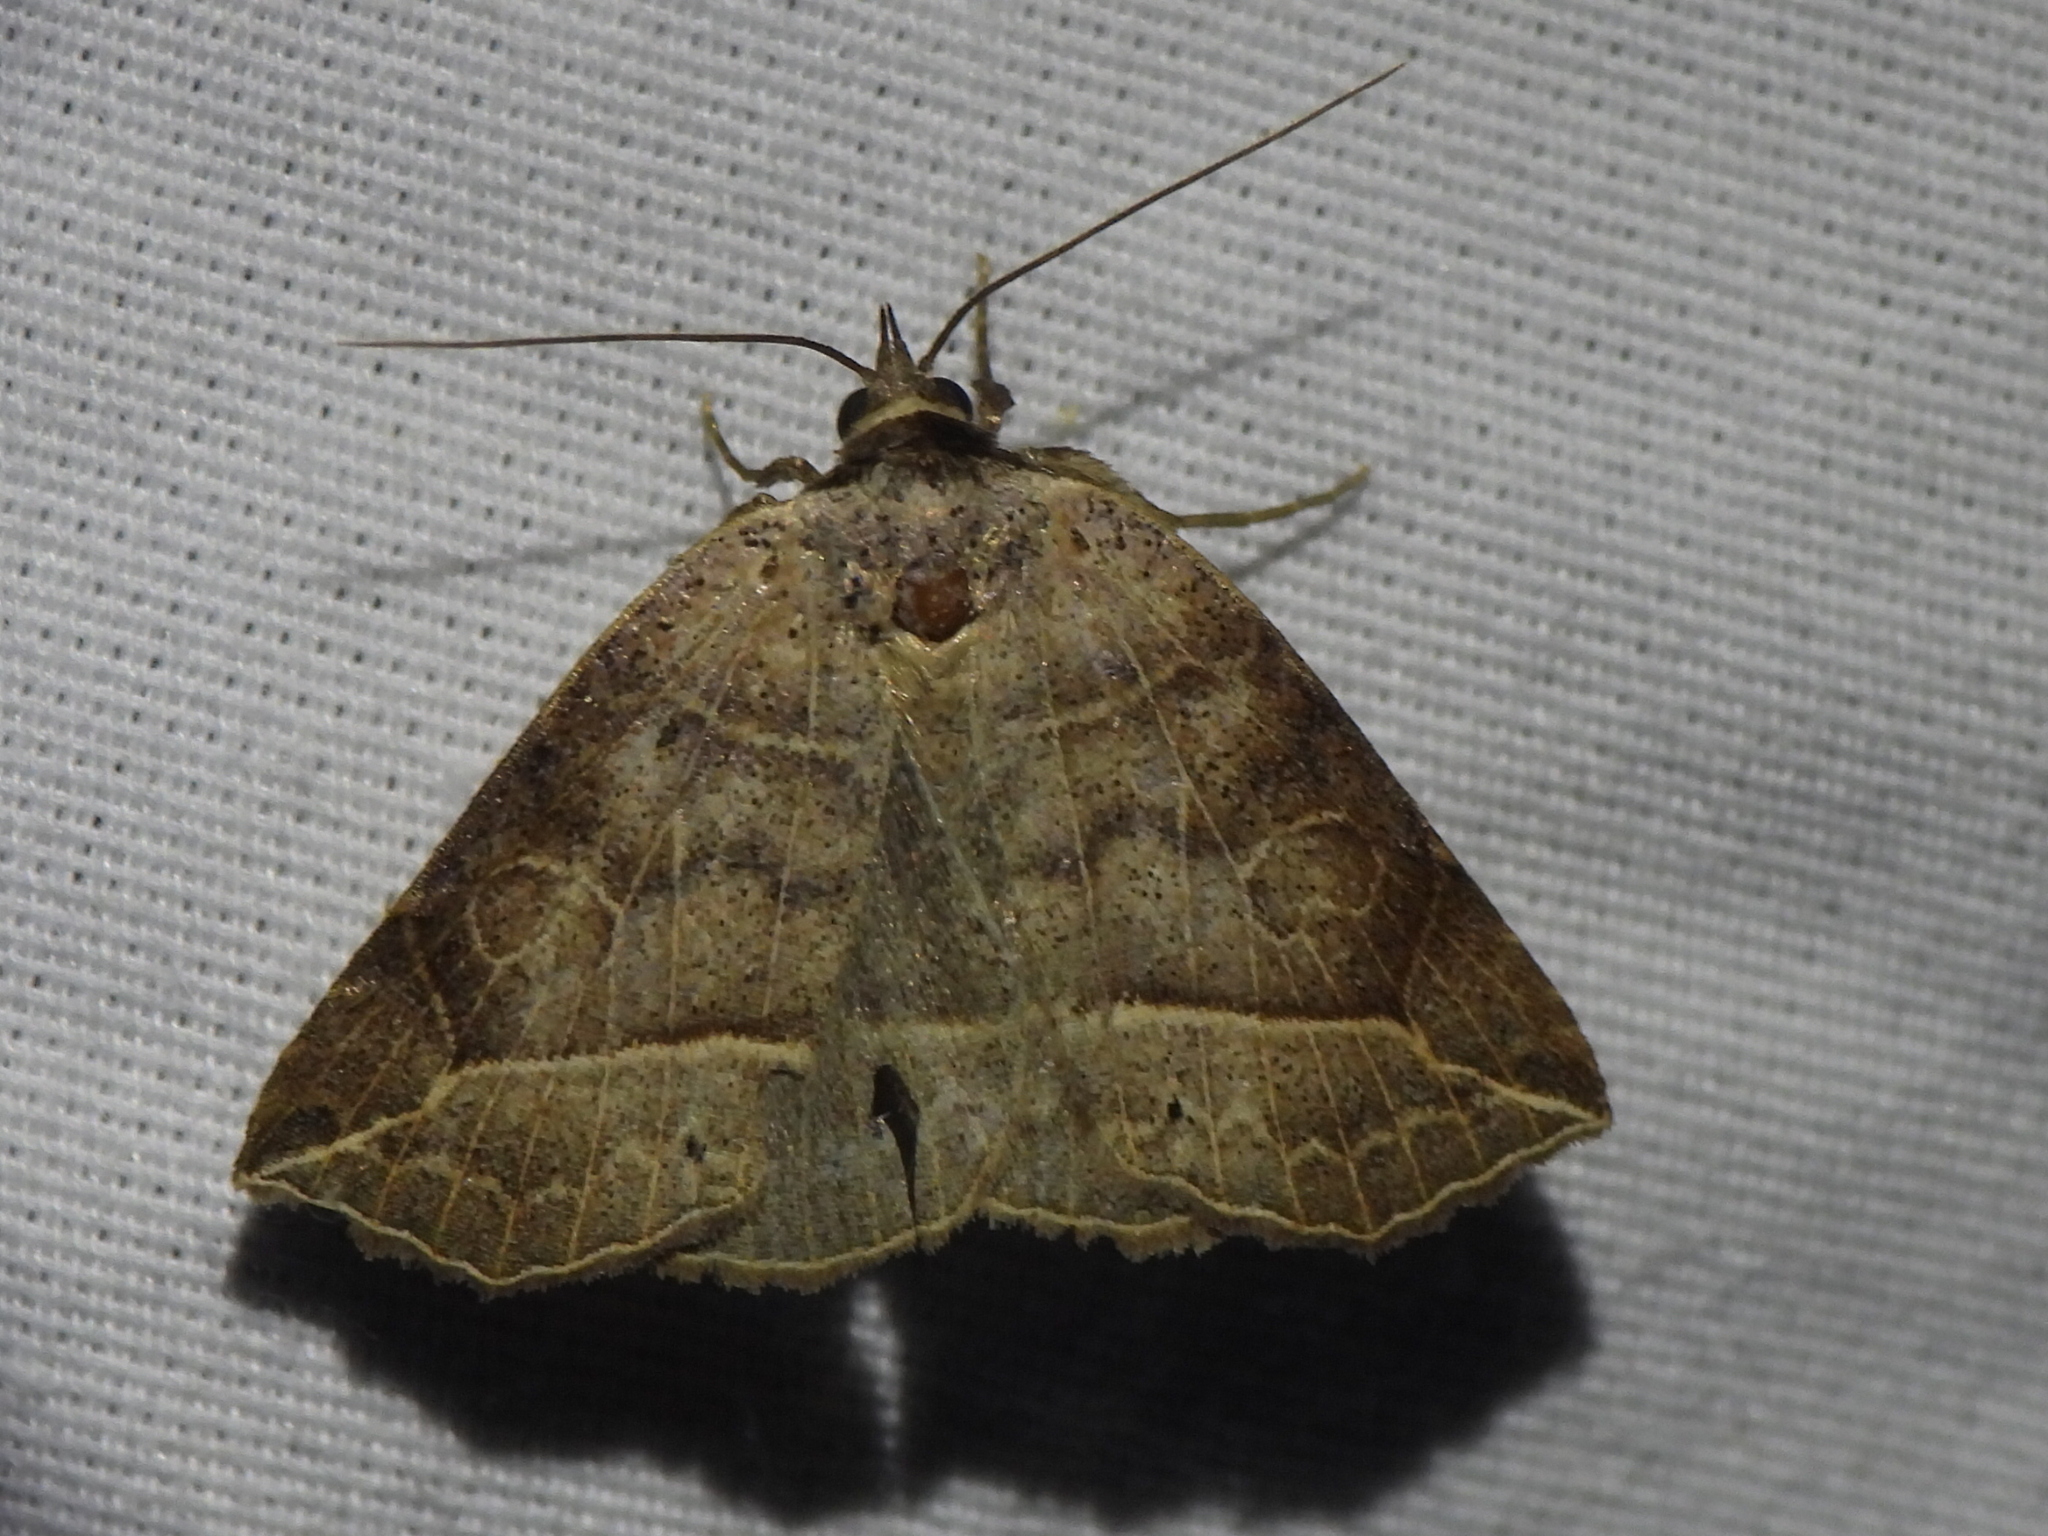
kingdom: Animalia
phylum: Arthropoda
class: Insecta
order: Lepidoptera
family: Erebidae
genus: Isogona
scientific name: Isogona tenuis
